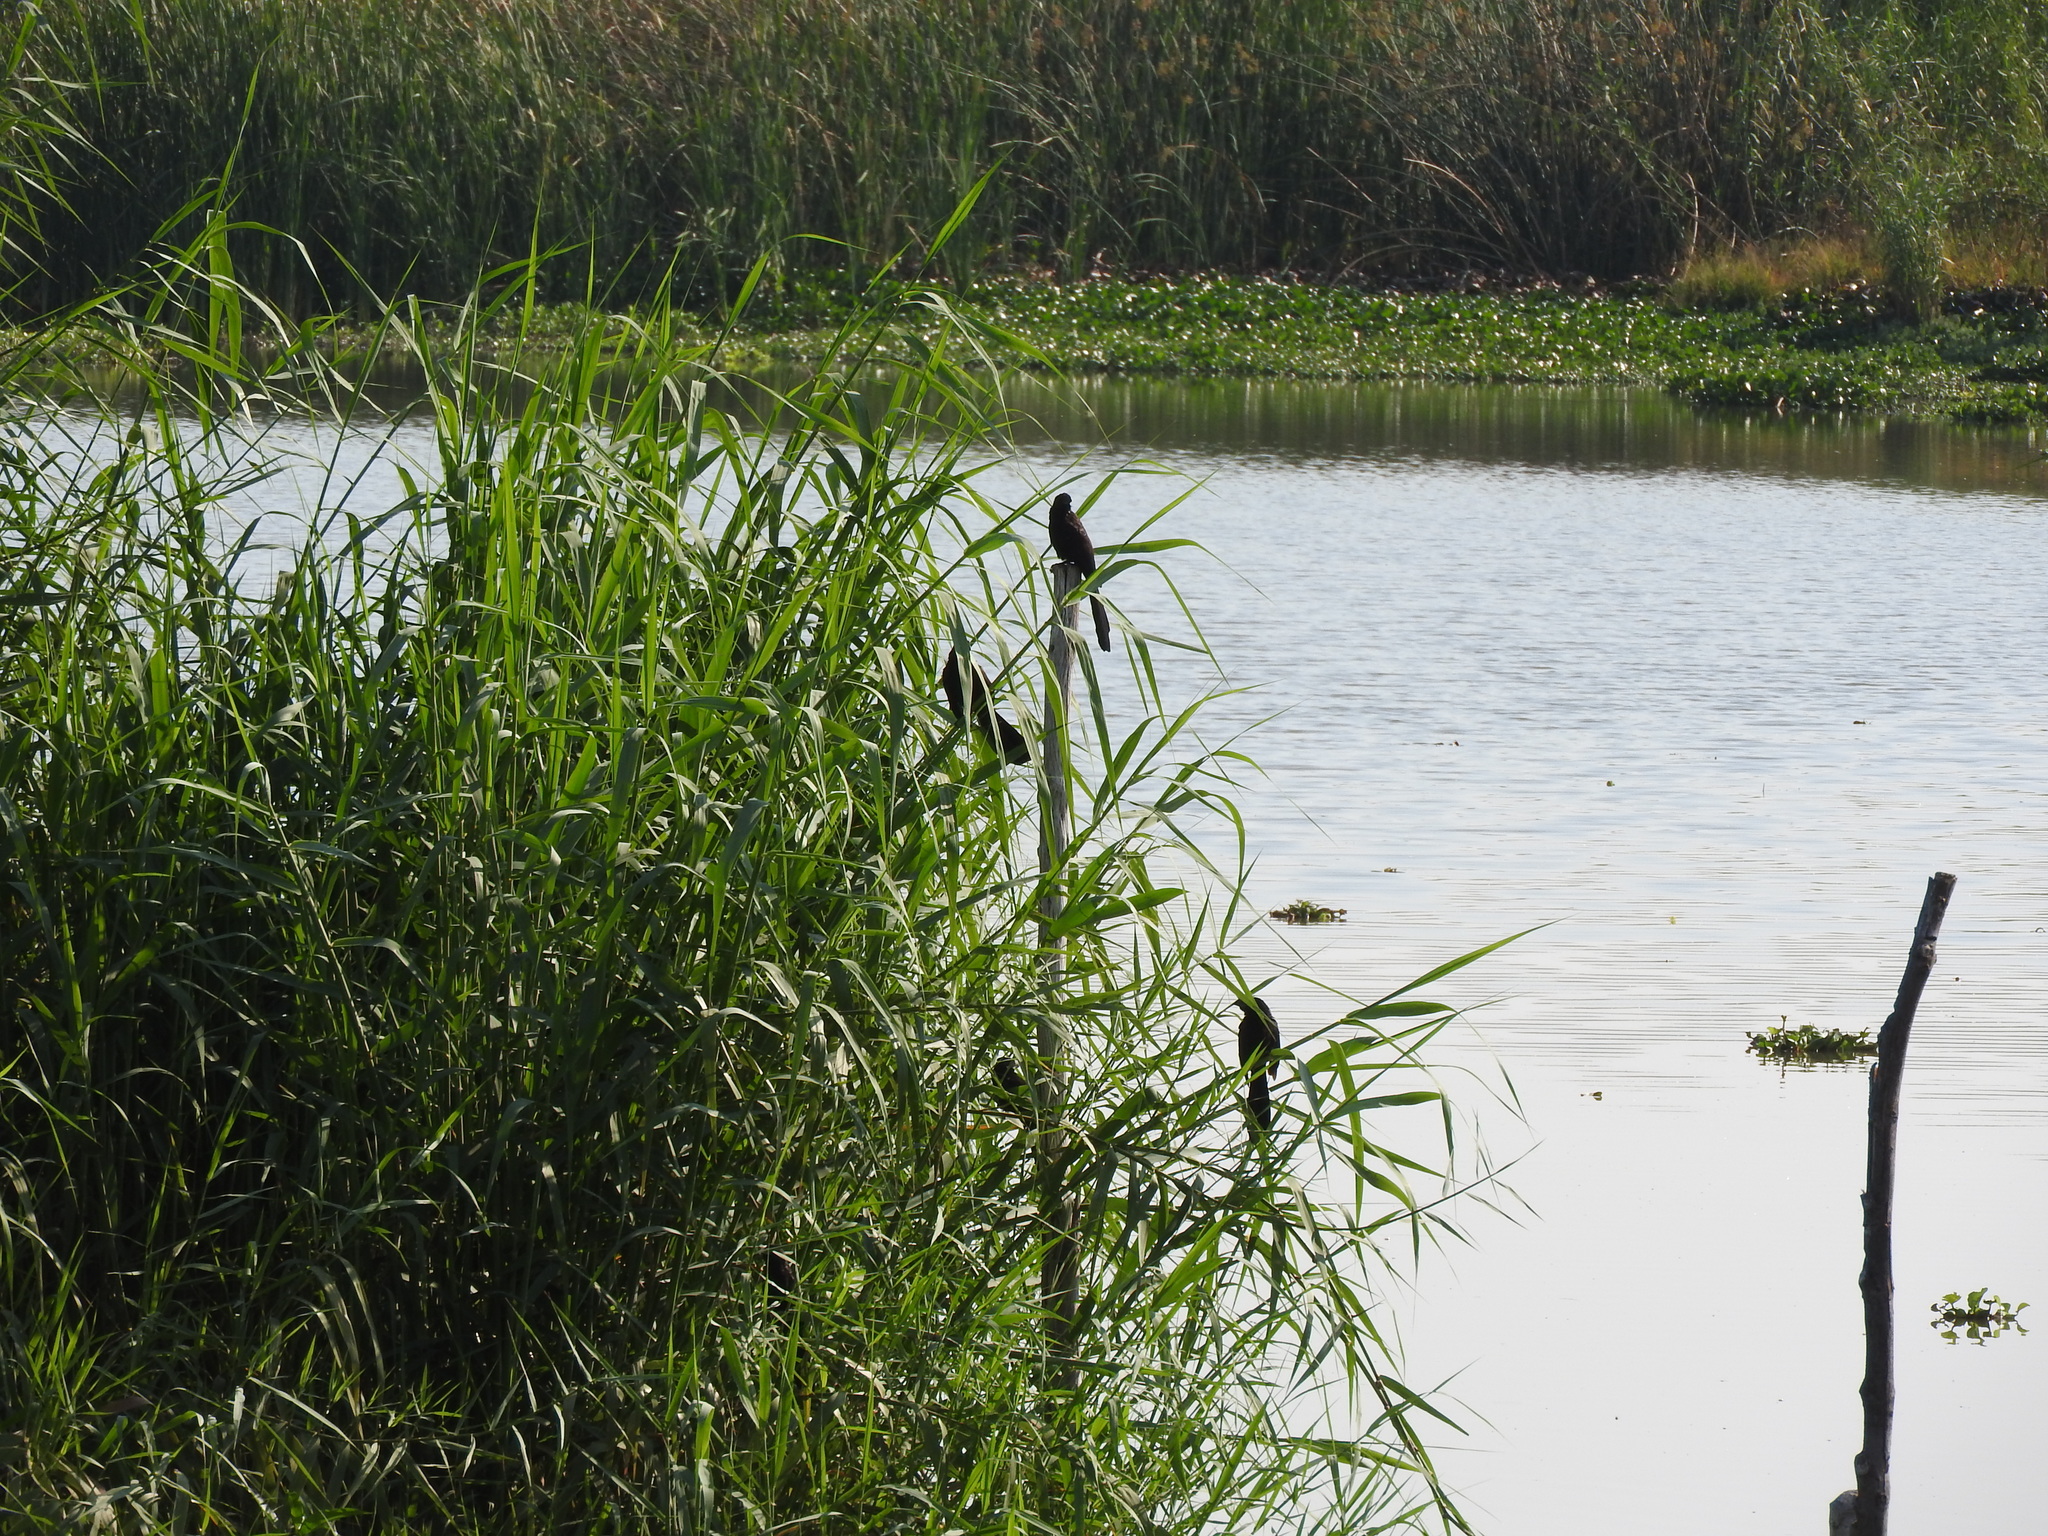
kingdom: Animalia
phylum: Chordata
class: Aves
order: Cuculiformes
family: Cuculidae
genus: Crotophaga
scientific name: Crotophaga sulcirostris
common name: Groove-billed ani
